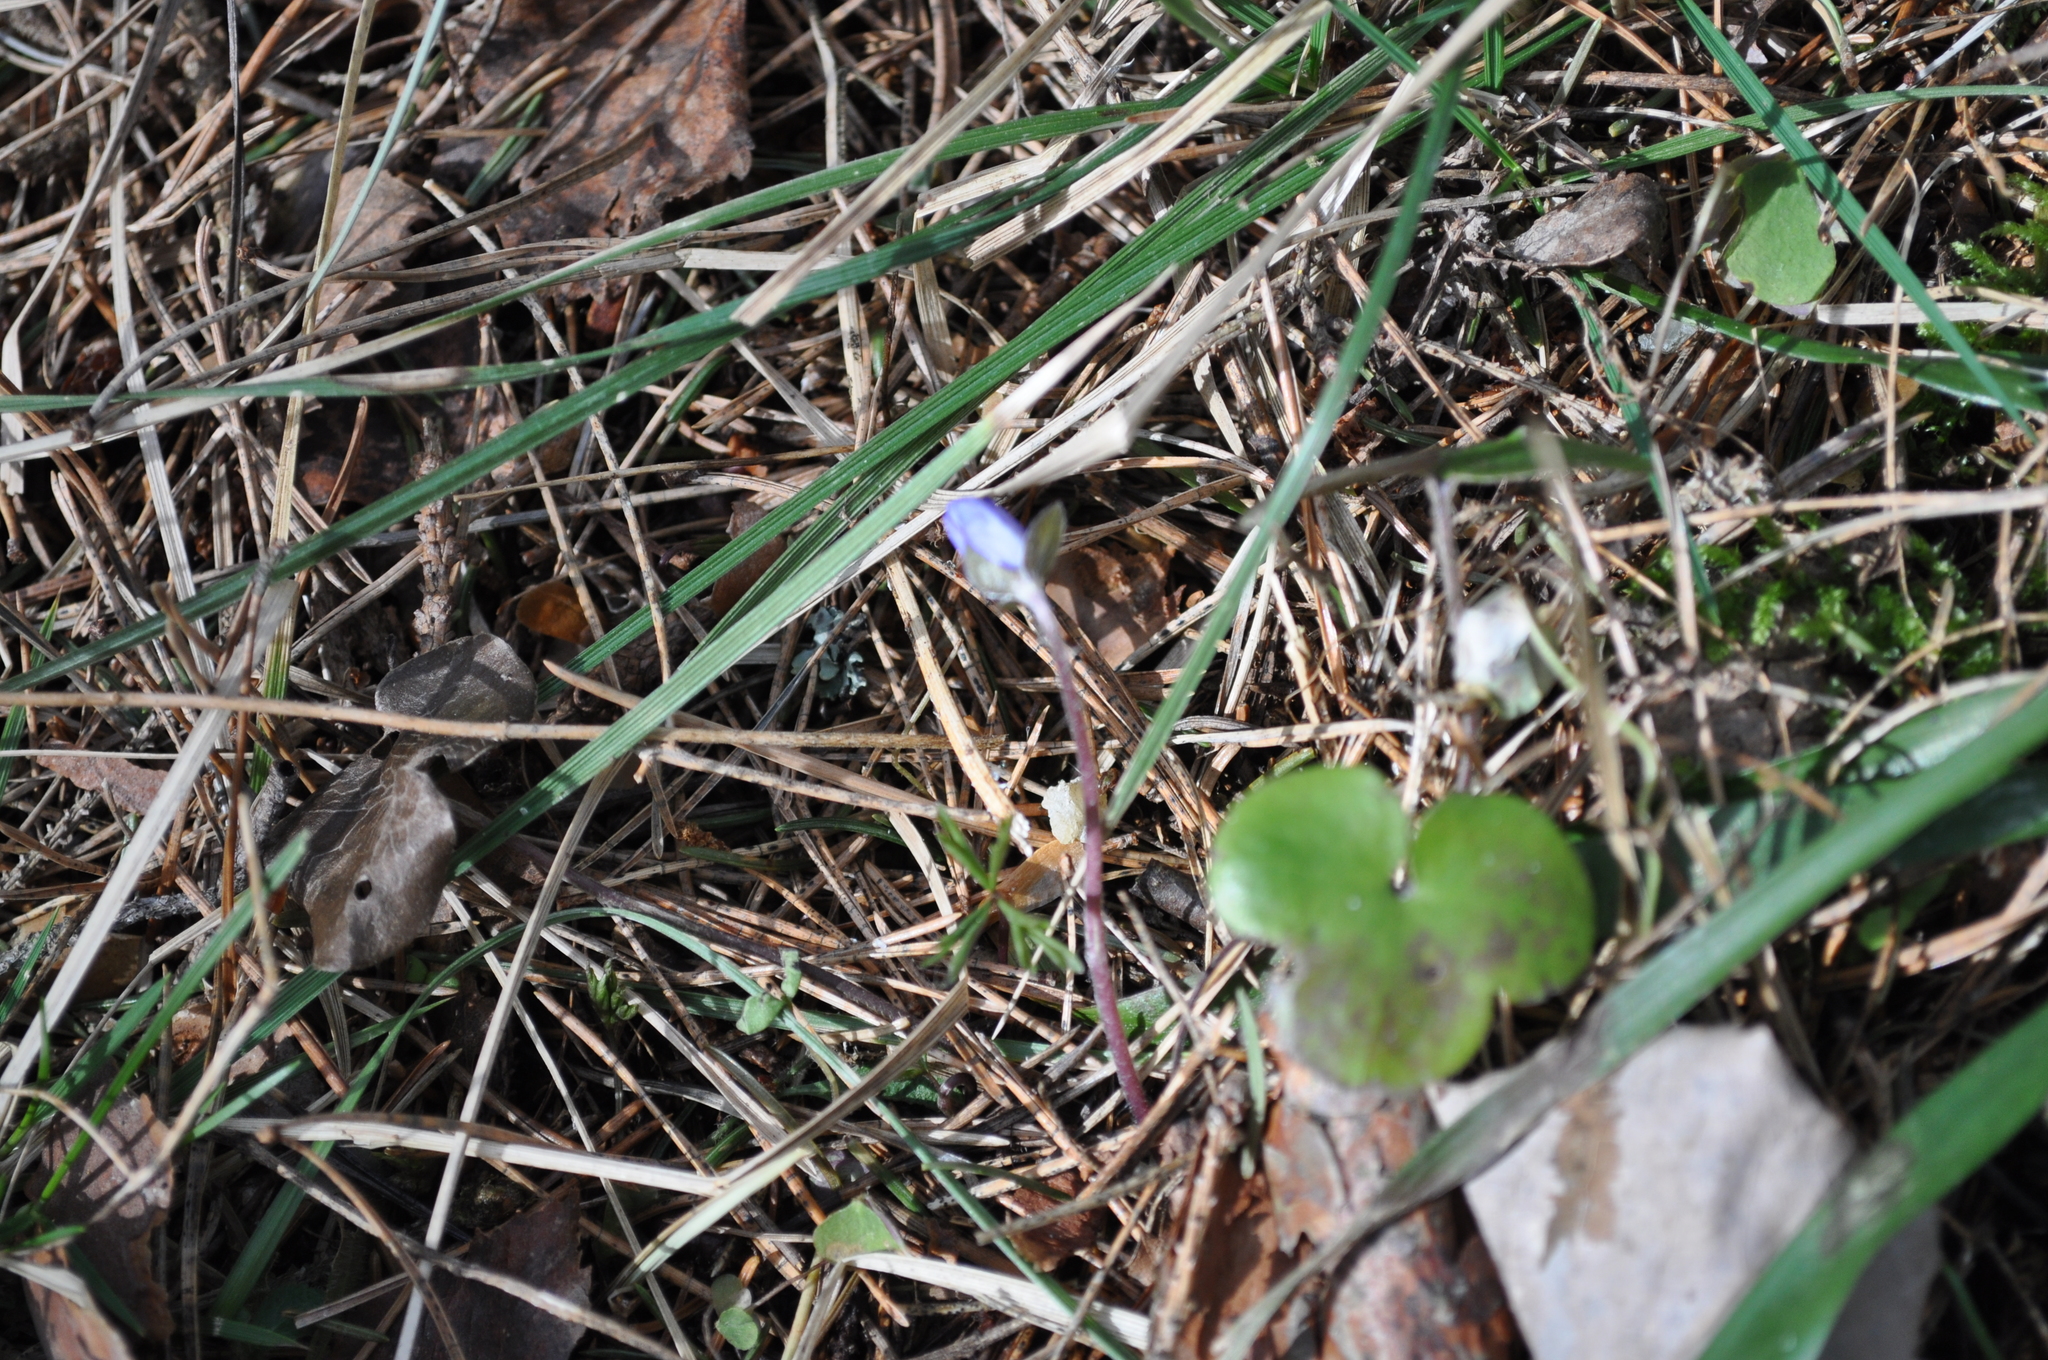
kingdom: Plantae
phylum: Tracheophyta
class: Magnoliopsida
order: Ranunculales
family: Ranunculaceae
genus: Hepatica
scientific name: Hepatica nobilis
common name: Liverleaf
